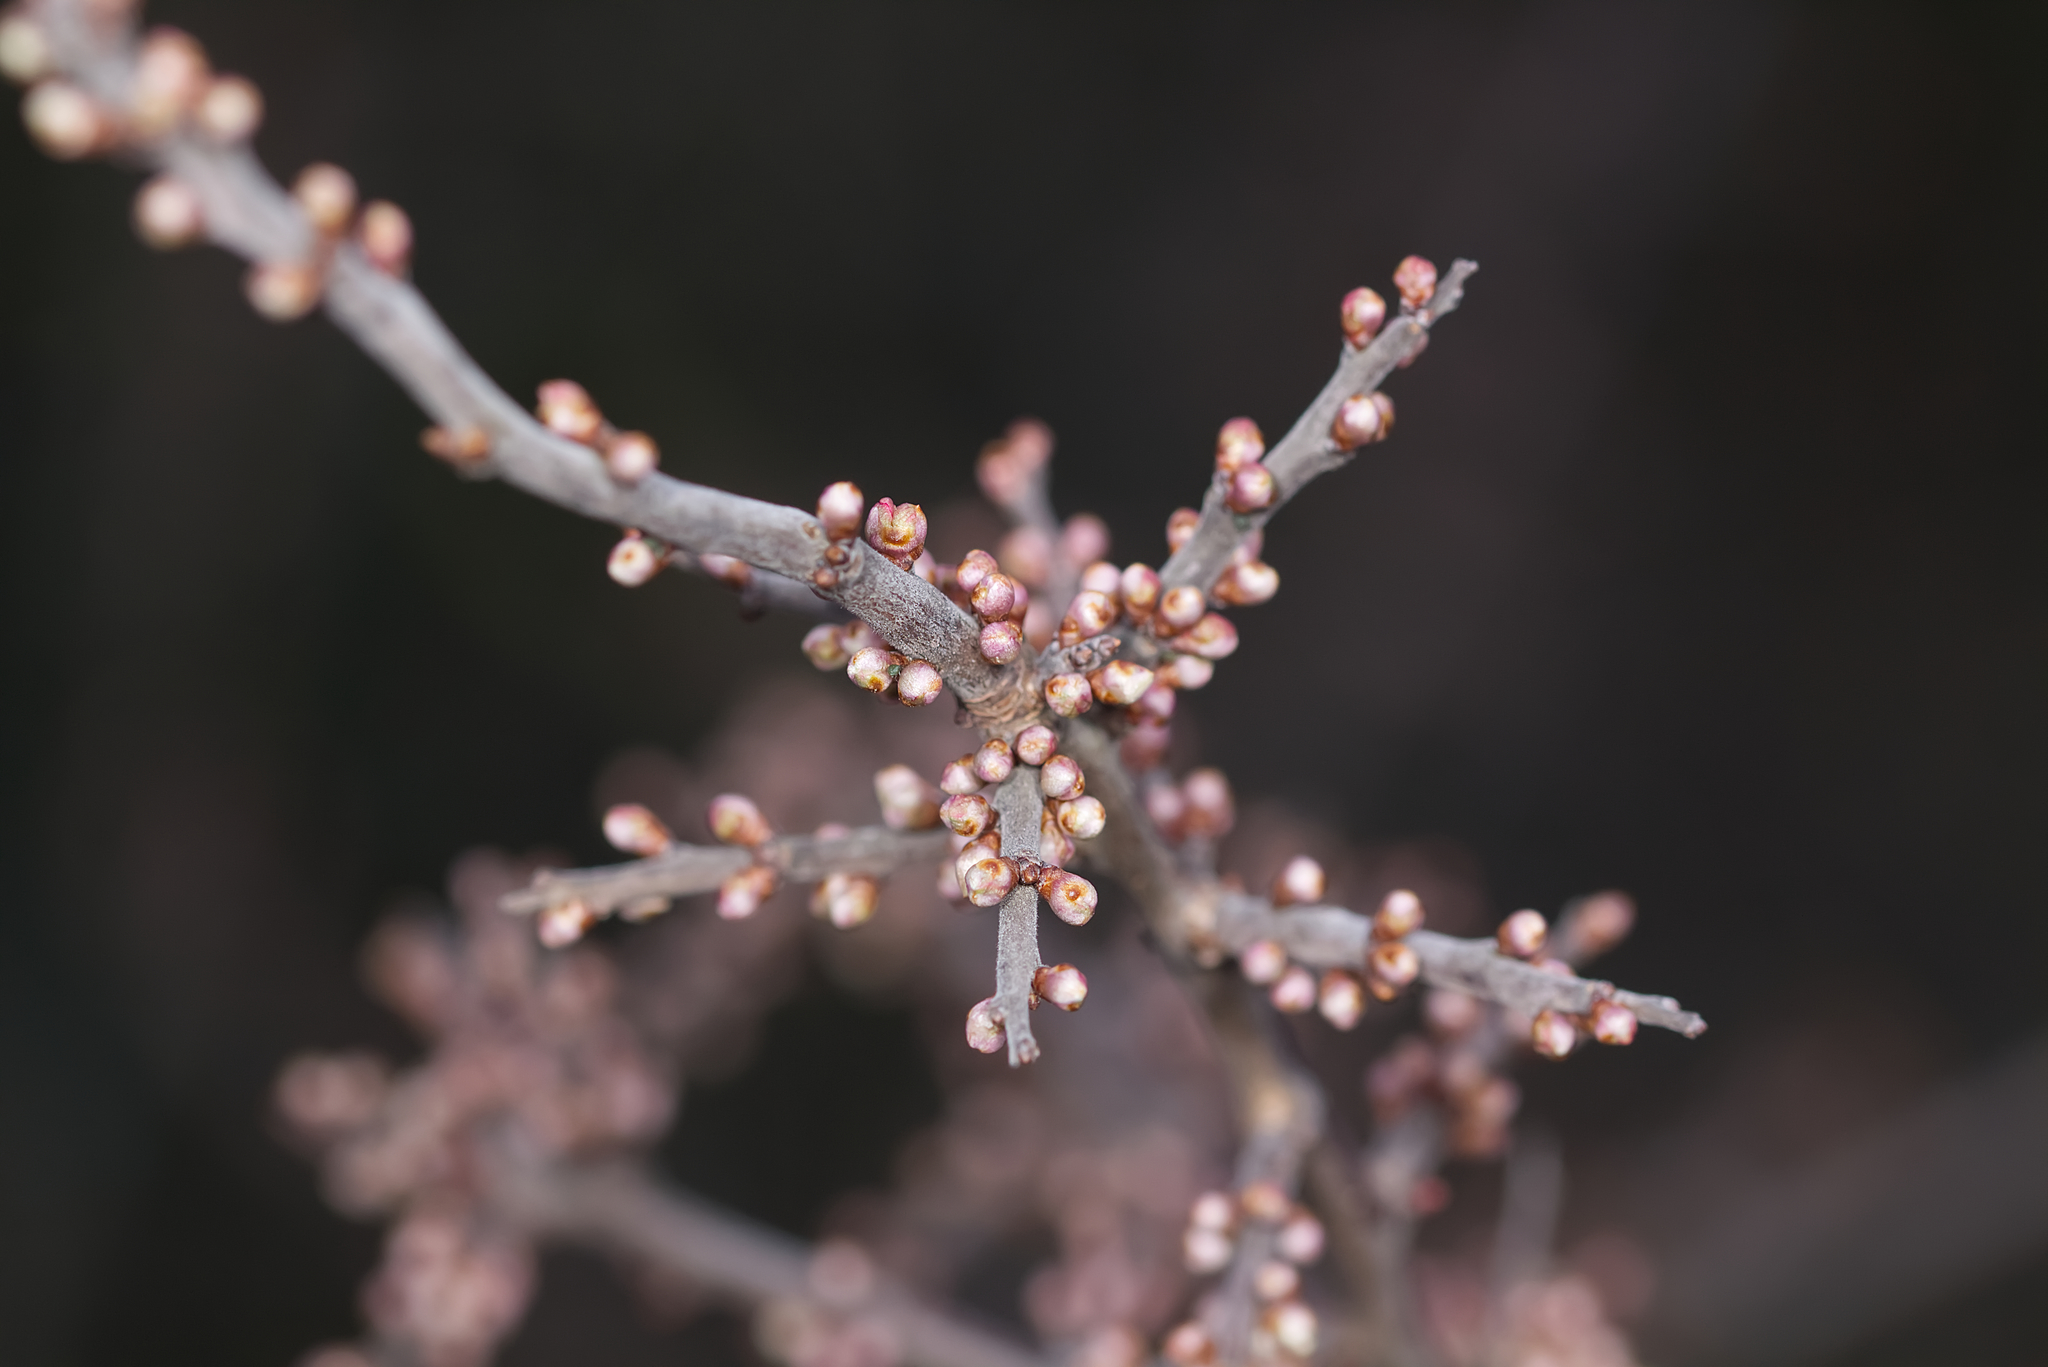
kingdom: Plantae
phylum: Tracheophyta
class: Magnoliopsida
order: Rosales
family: Rosaceae
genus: Prunus
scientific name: Prunus spinosa
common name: Blackthorn
